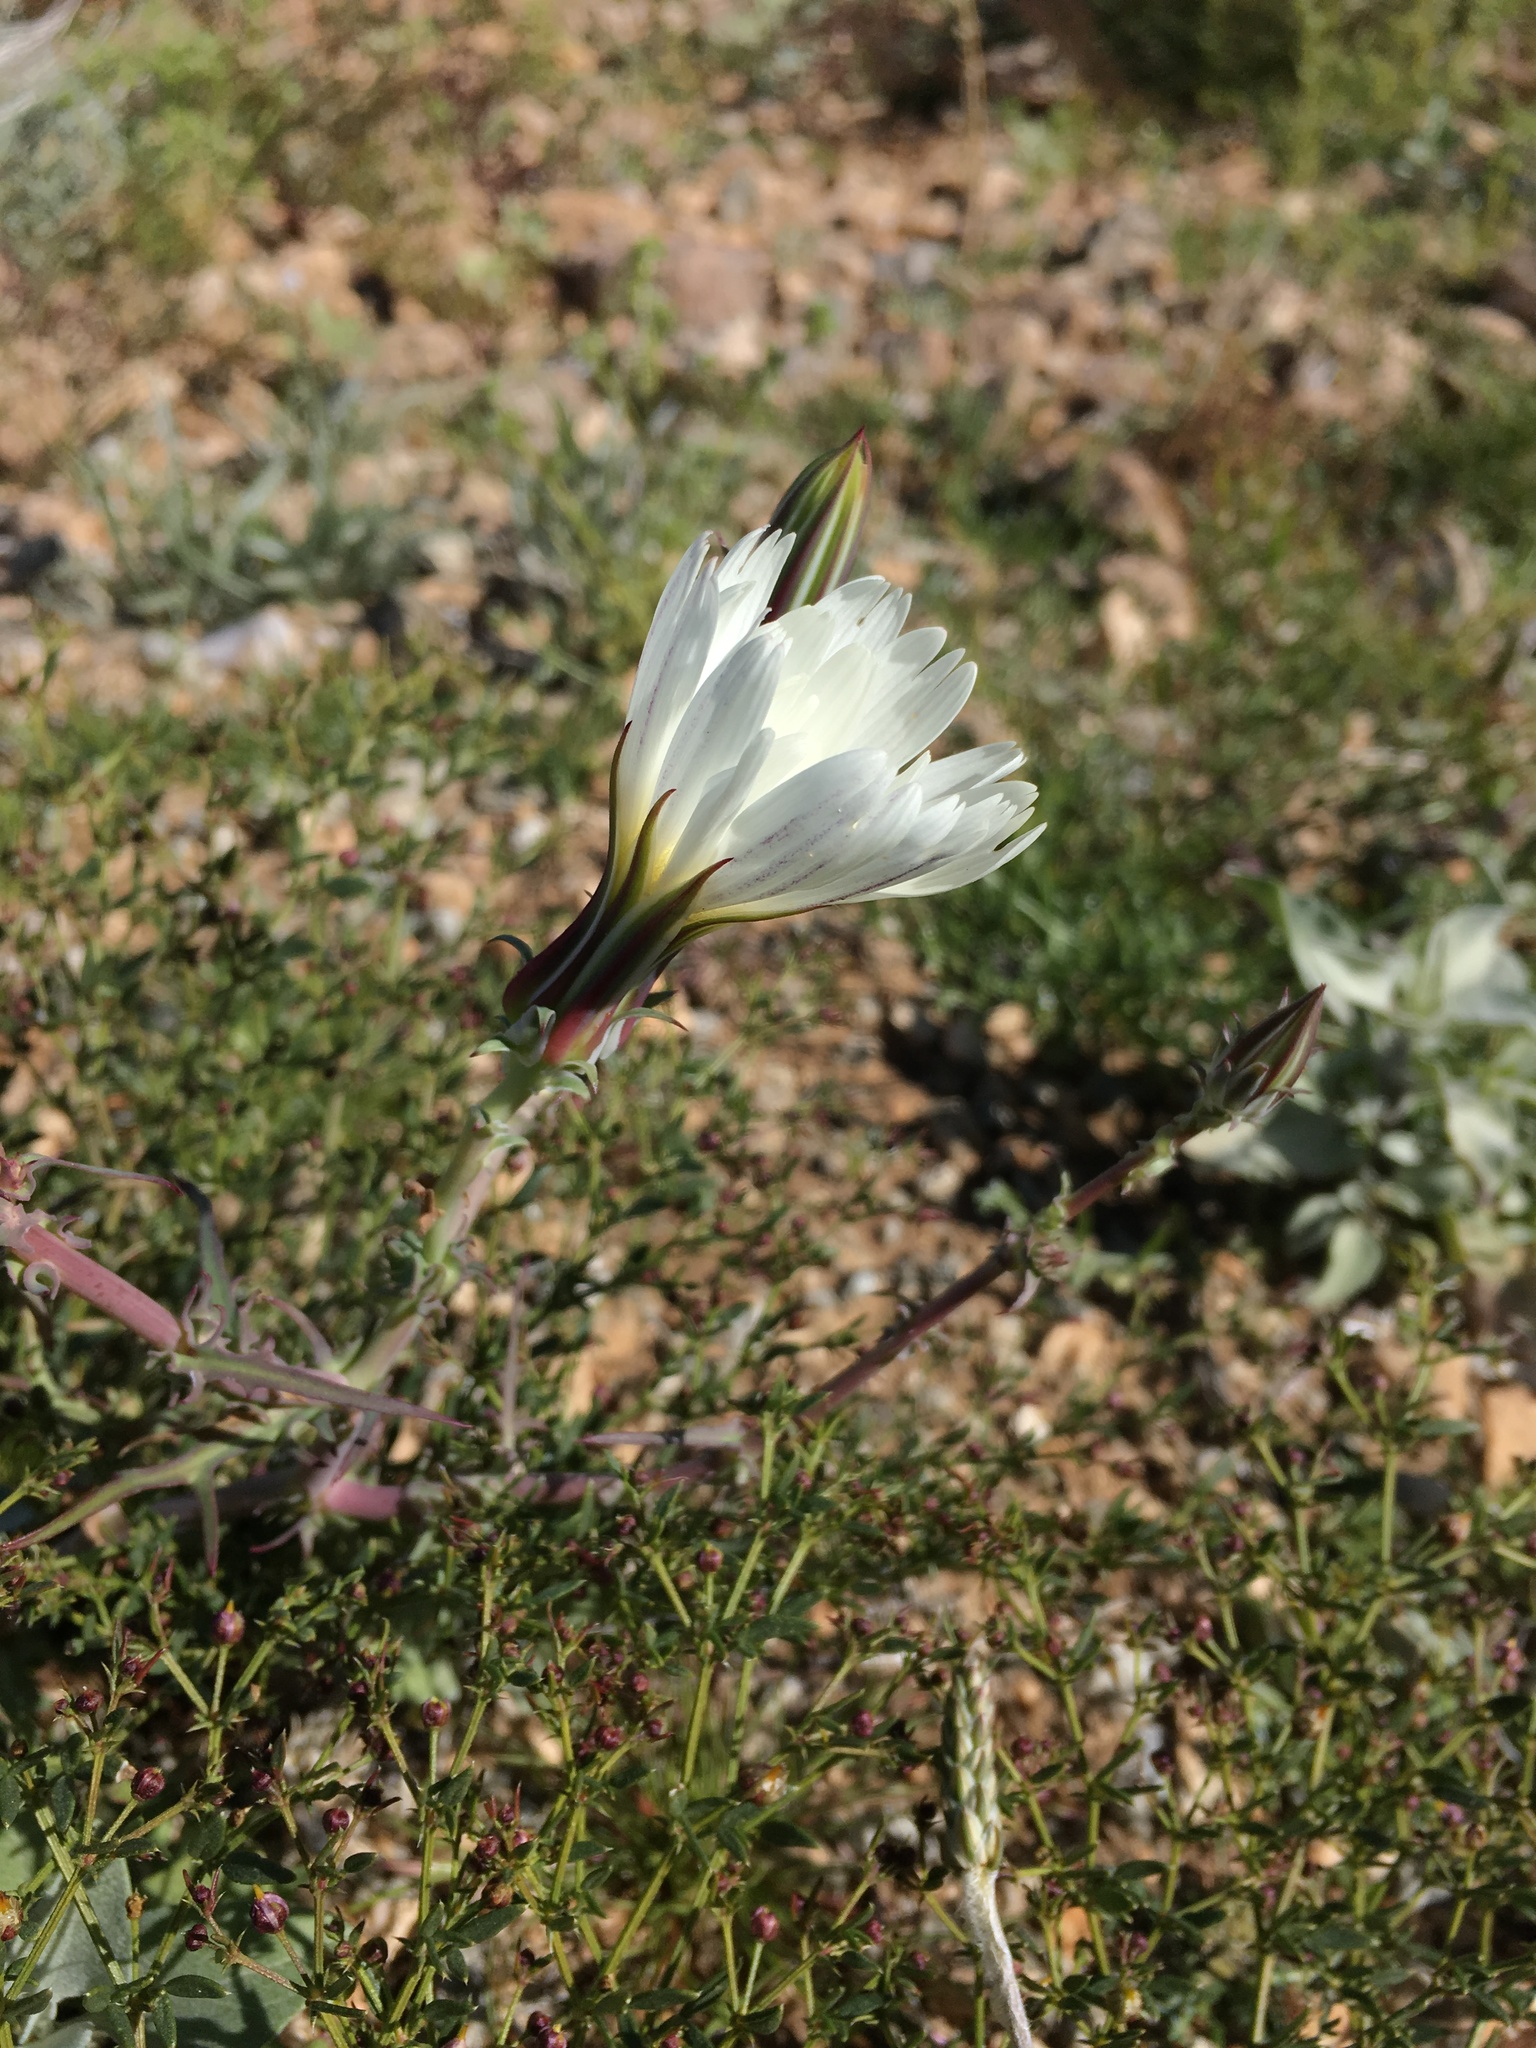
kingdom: Plantae
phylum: Tracheophyta
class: Magnoliopsida
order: Asterales
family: Asteraceae
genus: Rafinesquia
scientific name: Rafinesquia neomexicana
